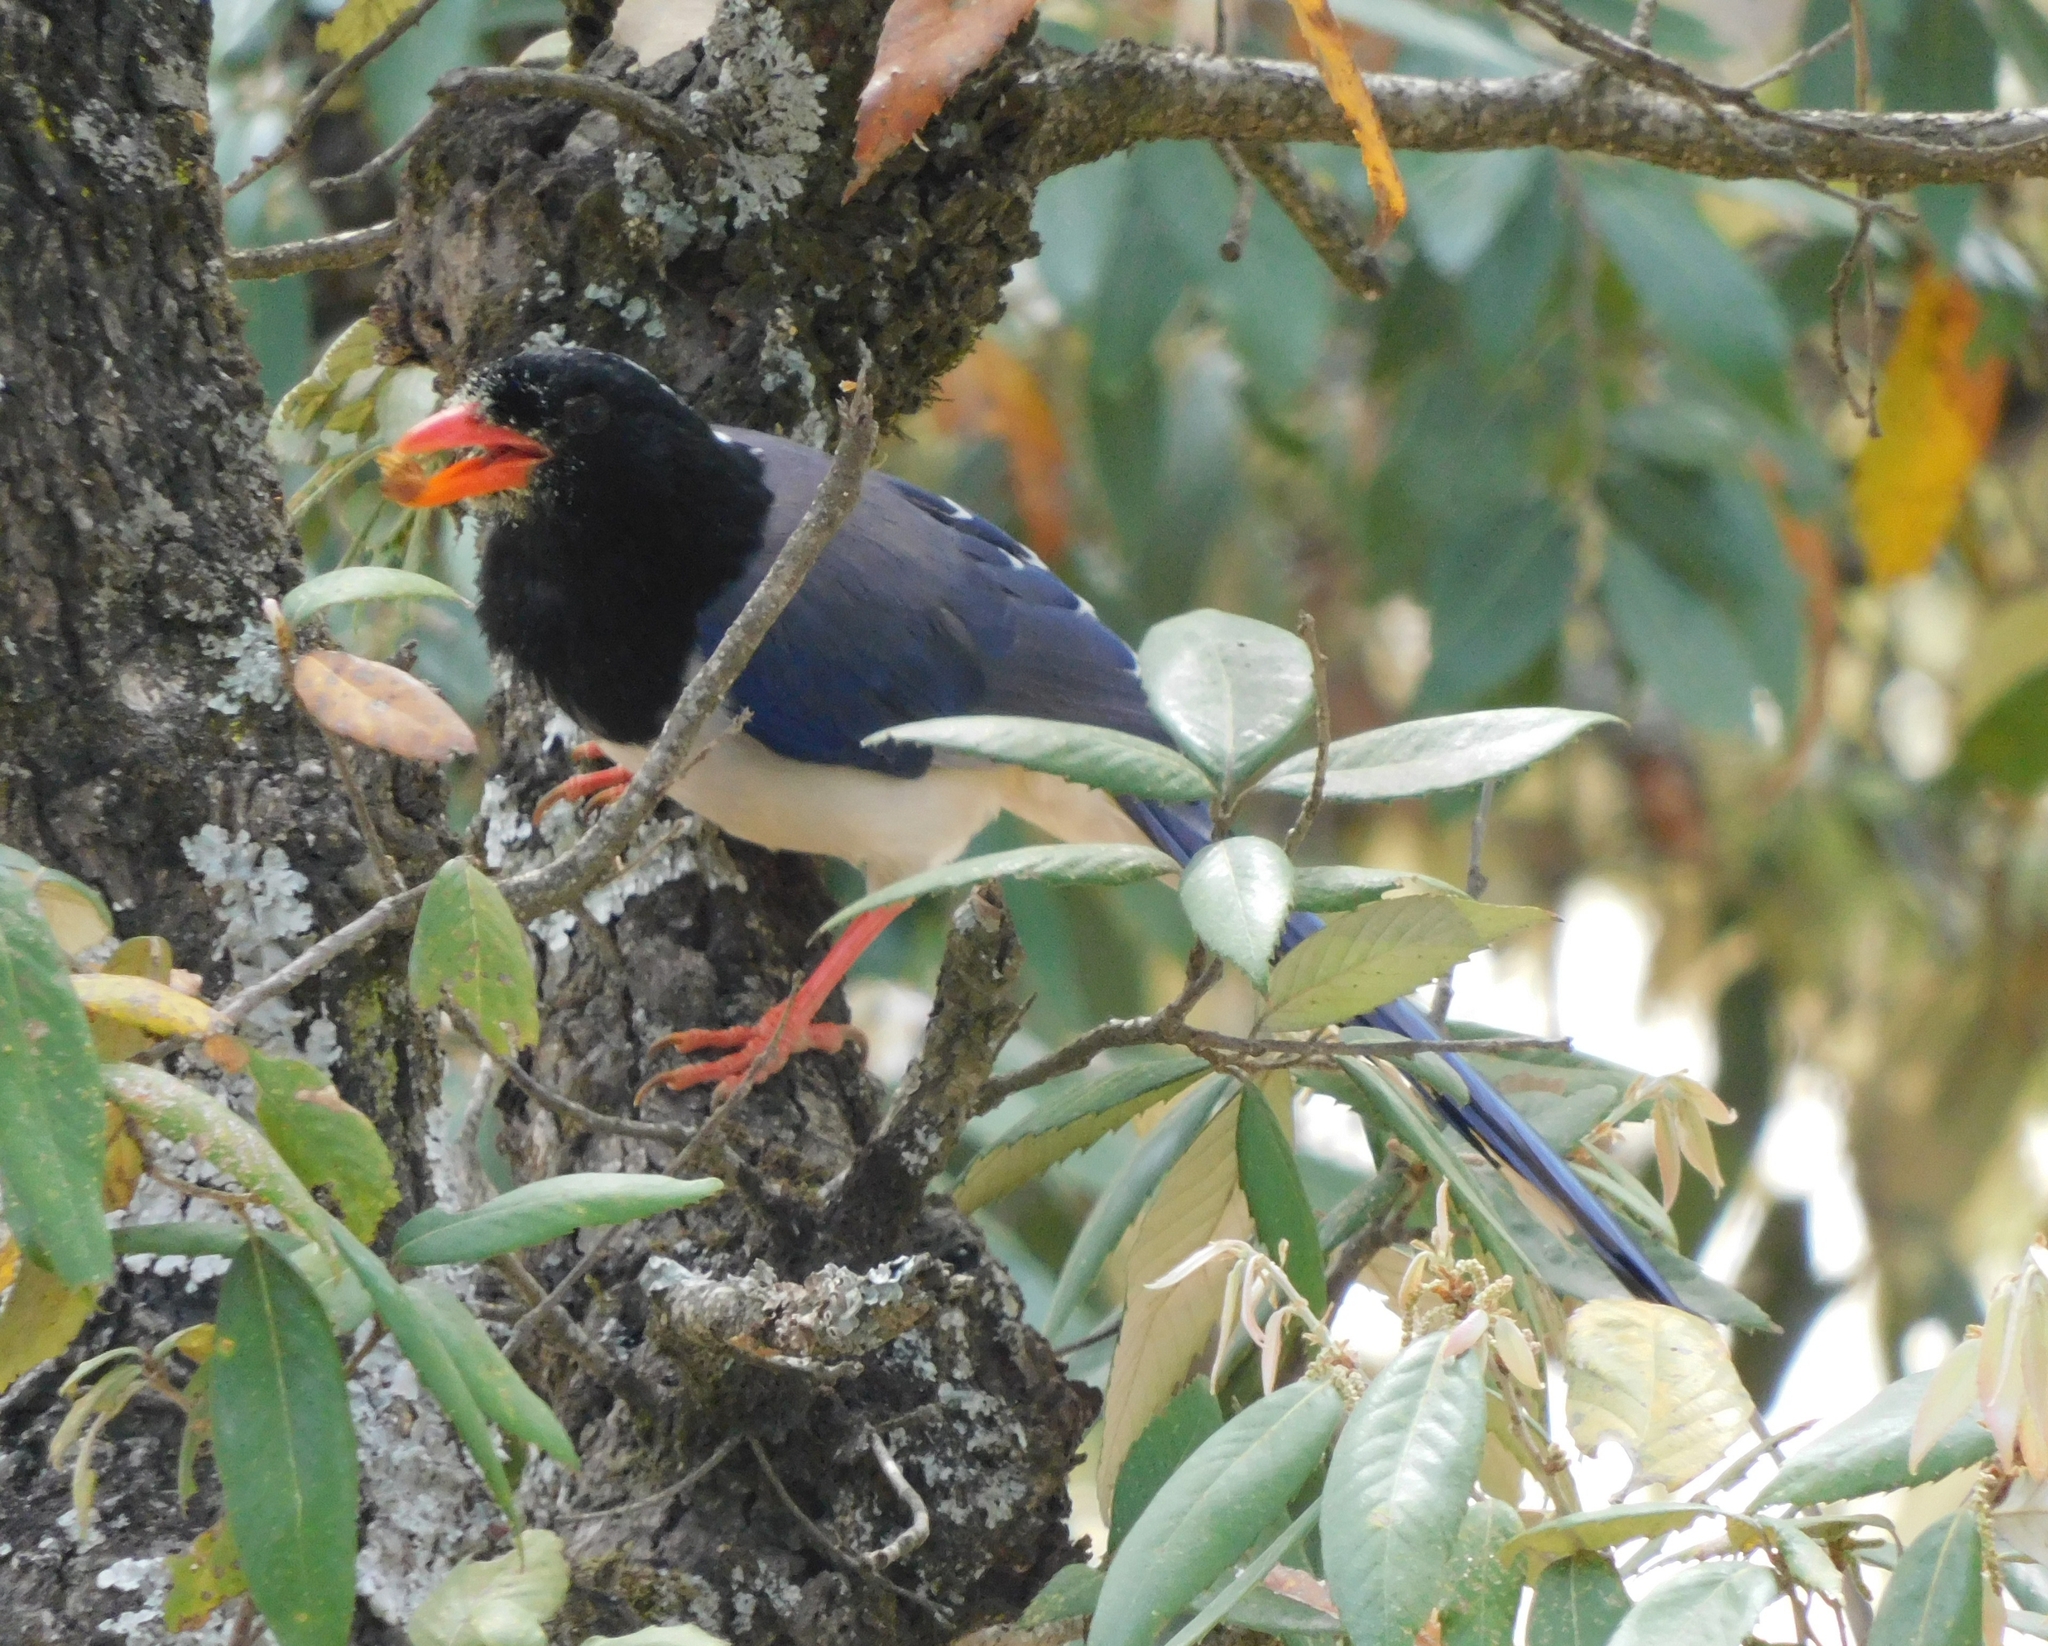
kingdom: Animalia
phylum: Chordata
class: Aves
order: Passeriformes
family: Corvidae
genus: Urocissa
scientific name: Urocissa erythroryncha
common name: Red-billed blue magpie
